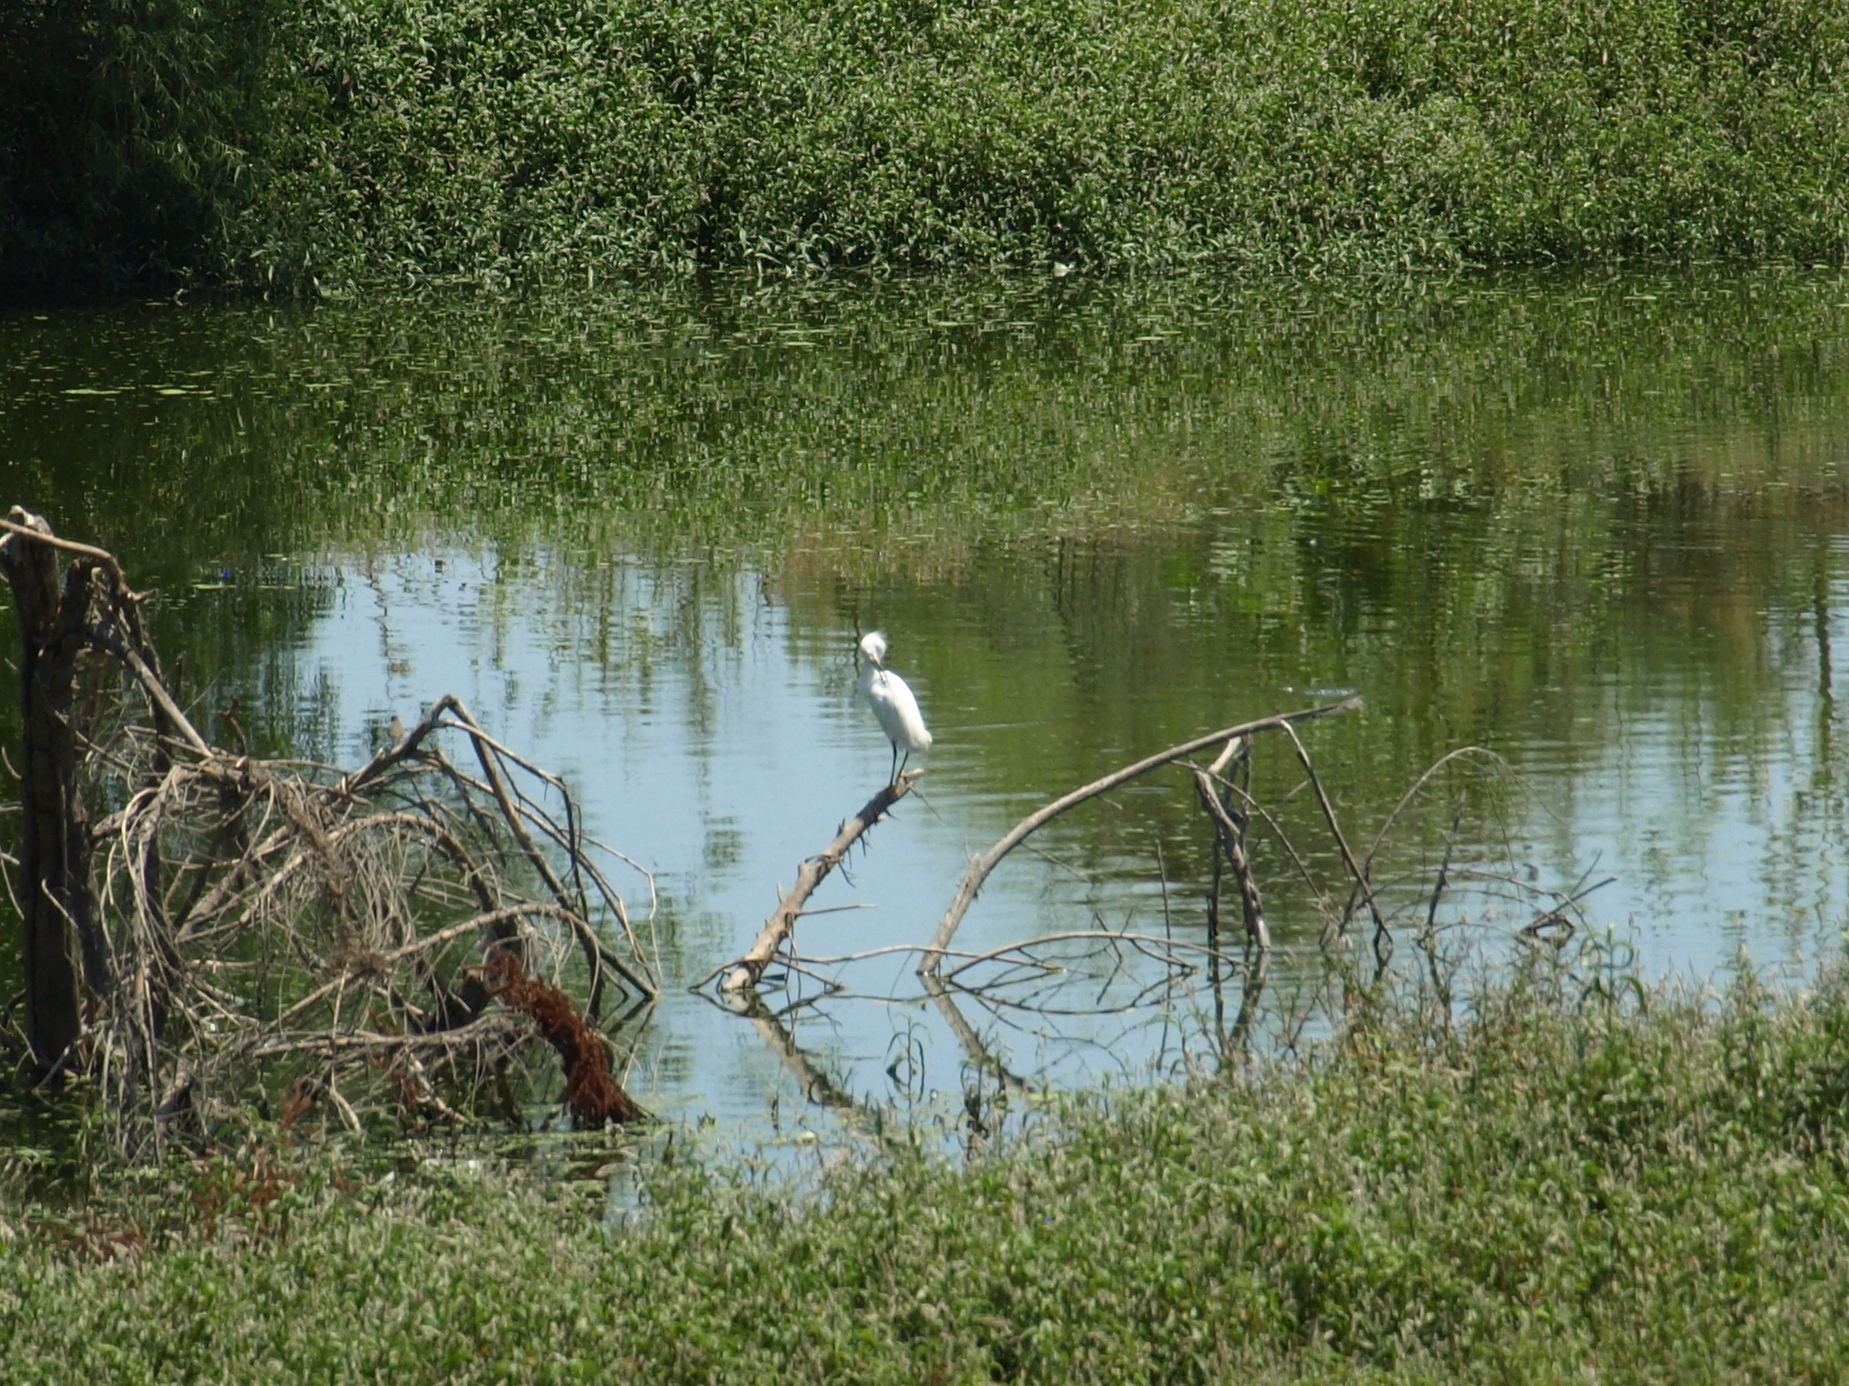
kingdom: Animalia
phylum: Chordata
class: Aves
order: Pelecaniformes
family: Ardeidae
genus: Egretta
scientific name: Egretta thula
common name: Snowy egret
